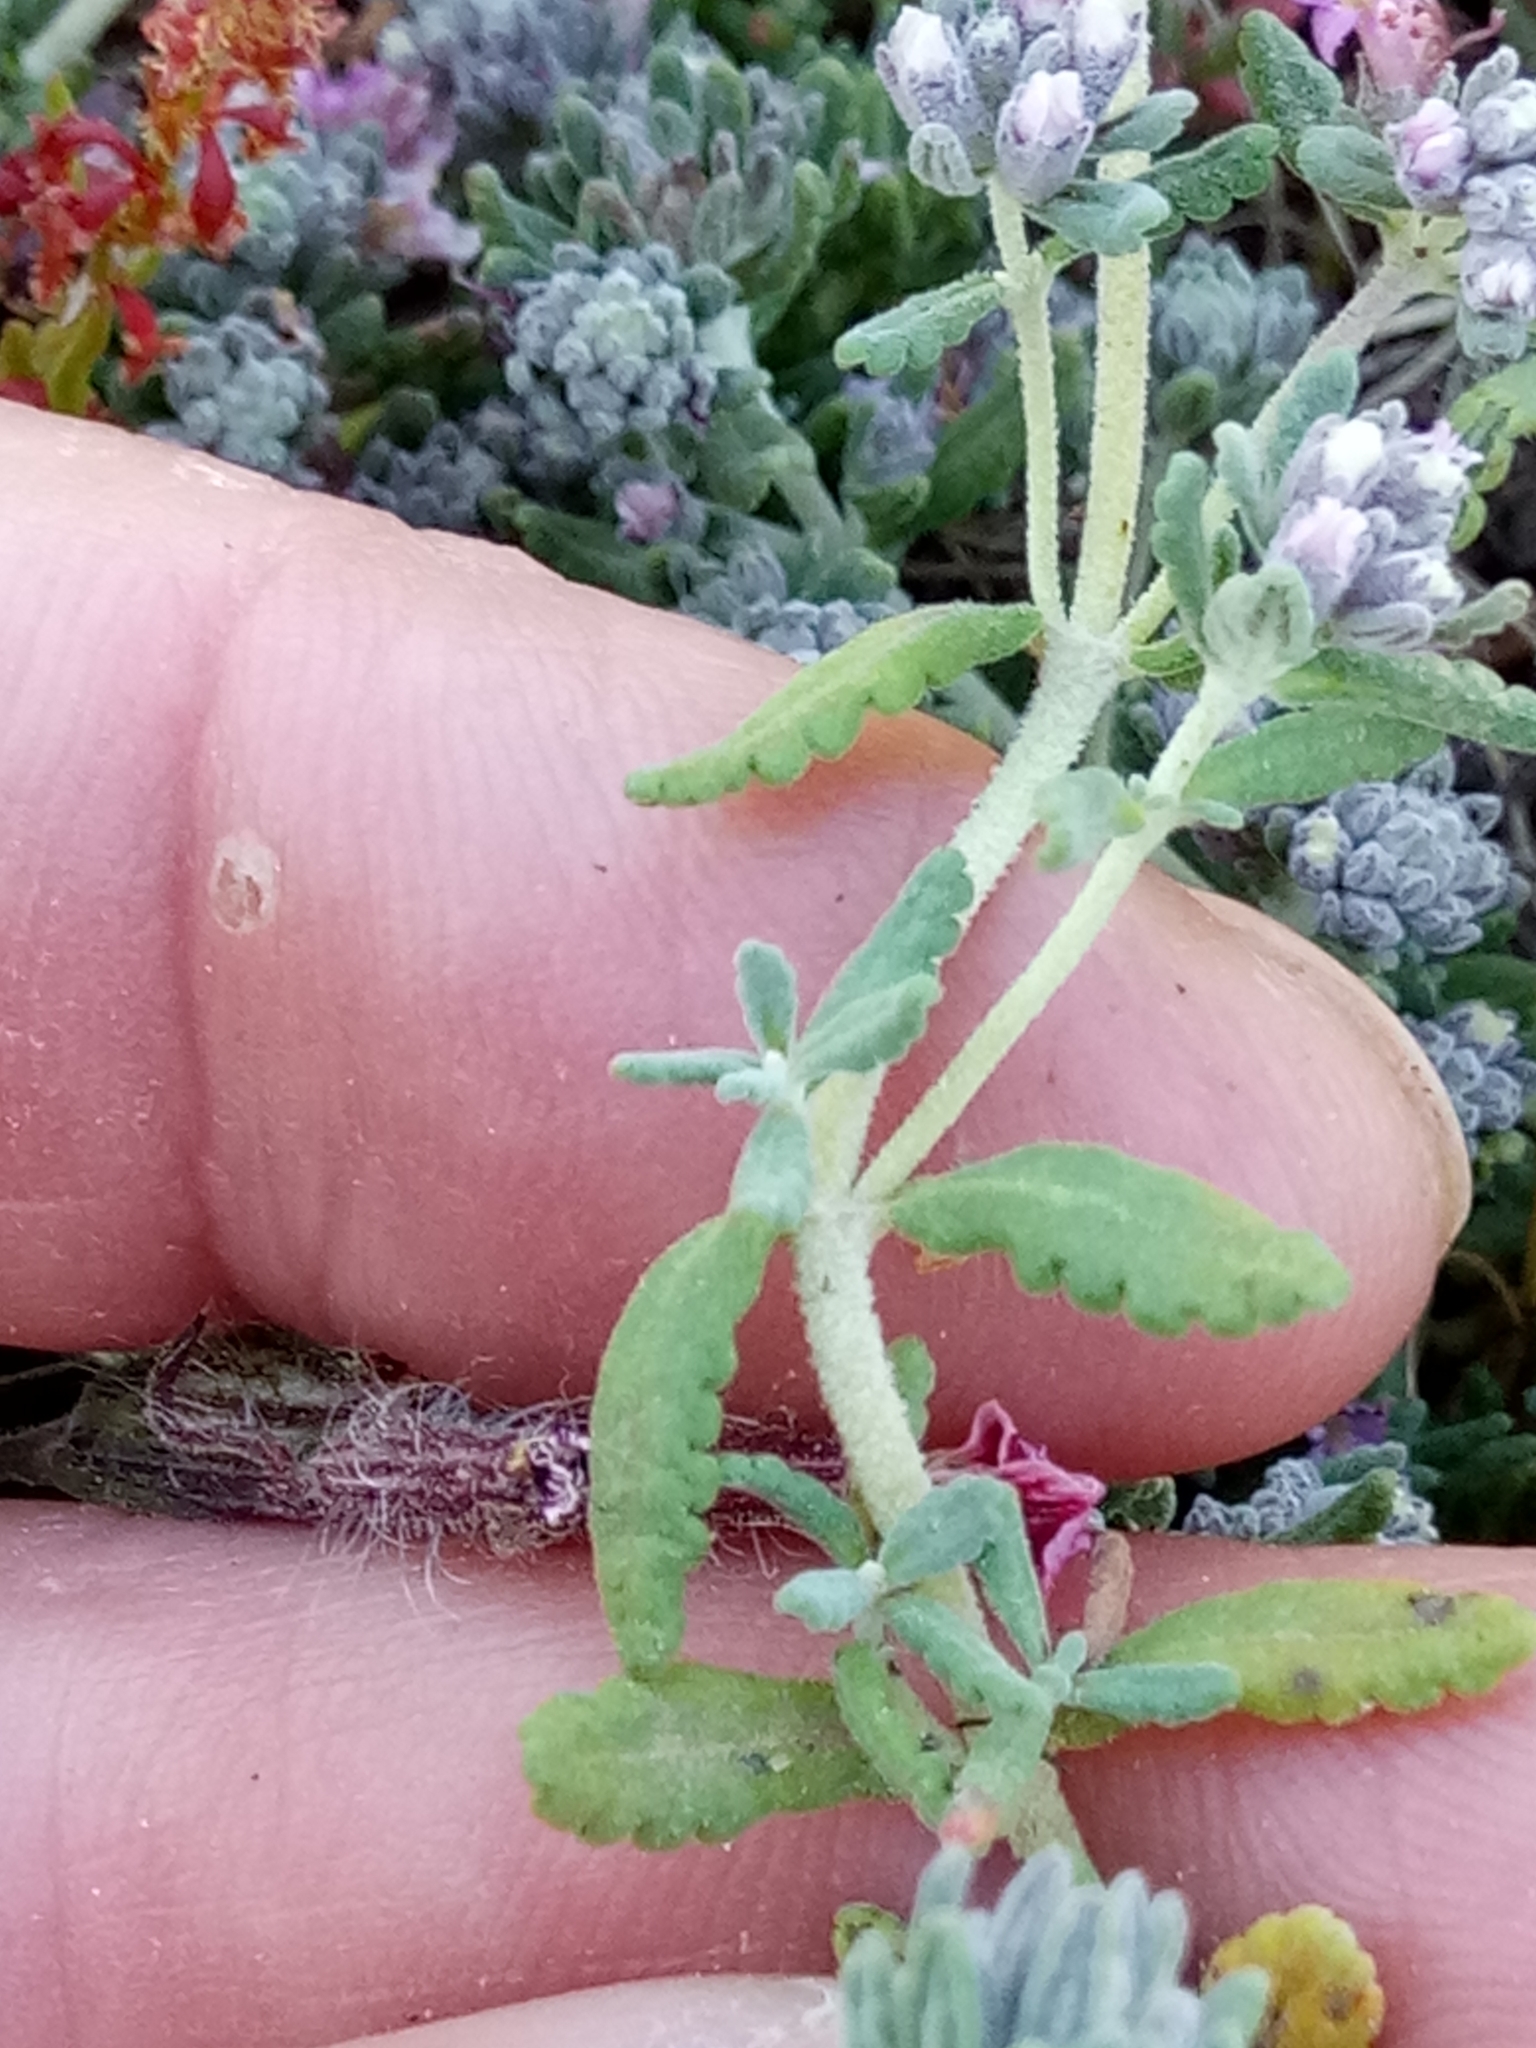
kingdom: Plantae
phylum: Tracheophyta
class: Magnoliopsida
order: Lamiales
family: Lamiaceae
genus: Teucrium
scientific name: Teucrium polium
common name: Poley
